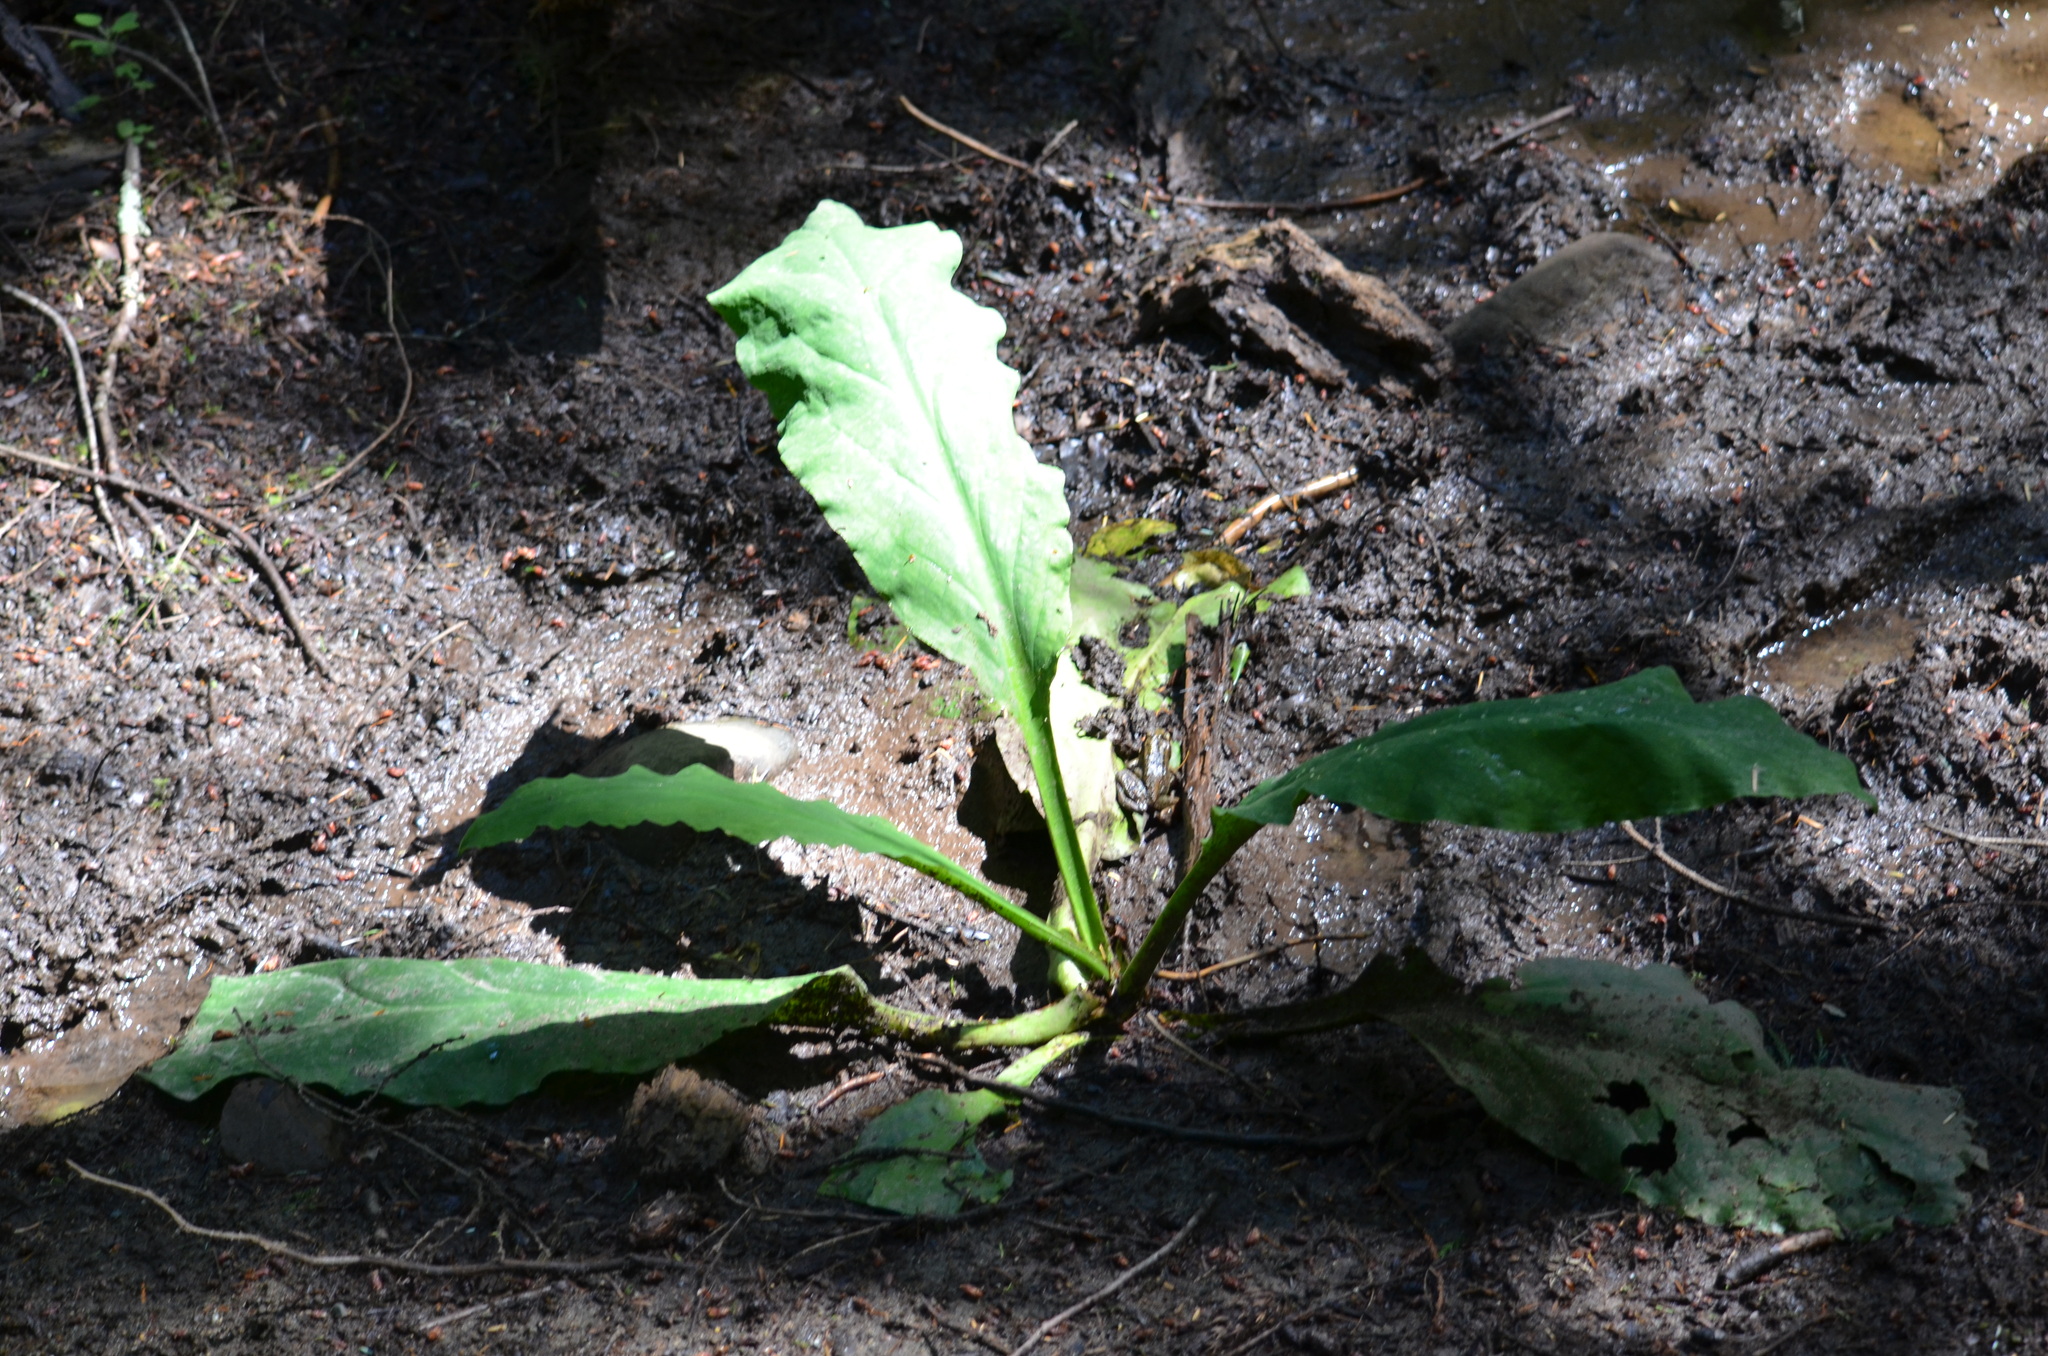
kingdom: Plantae
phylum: Tracheophyta
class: Liliopsida
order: Alismatales
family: Araceae
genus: Lysichiton
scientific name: Lysichiton americanus
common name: American skunk cabbage
